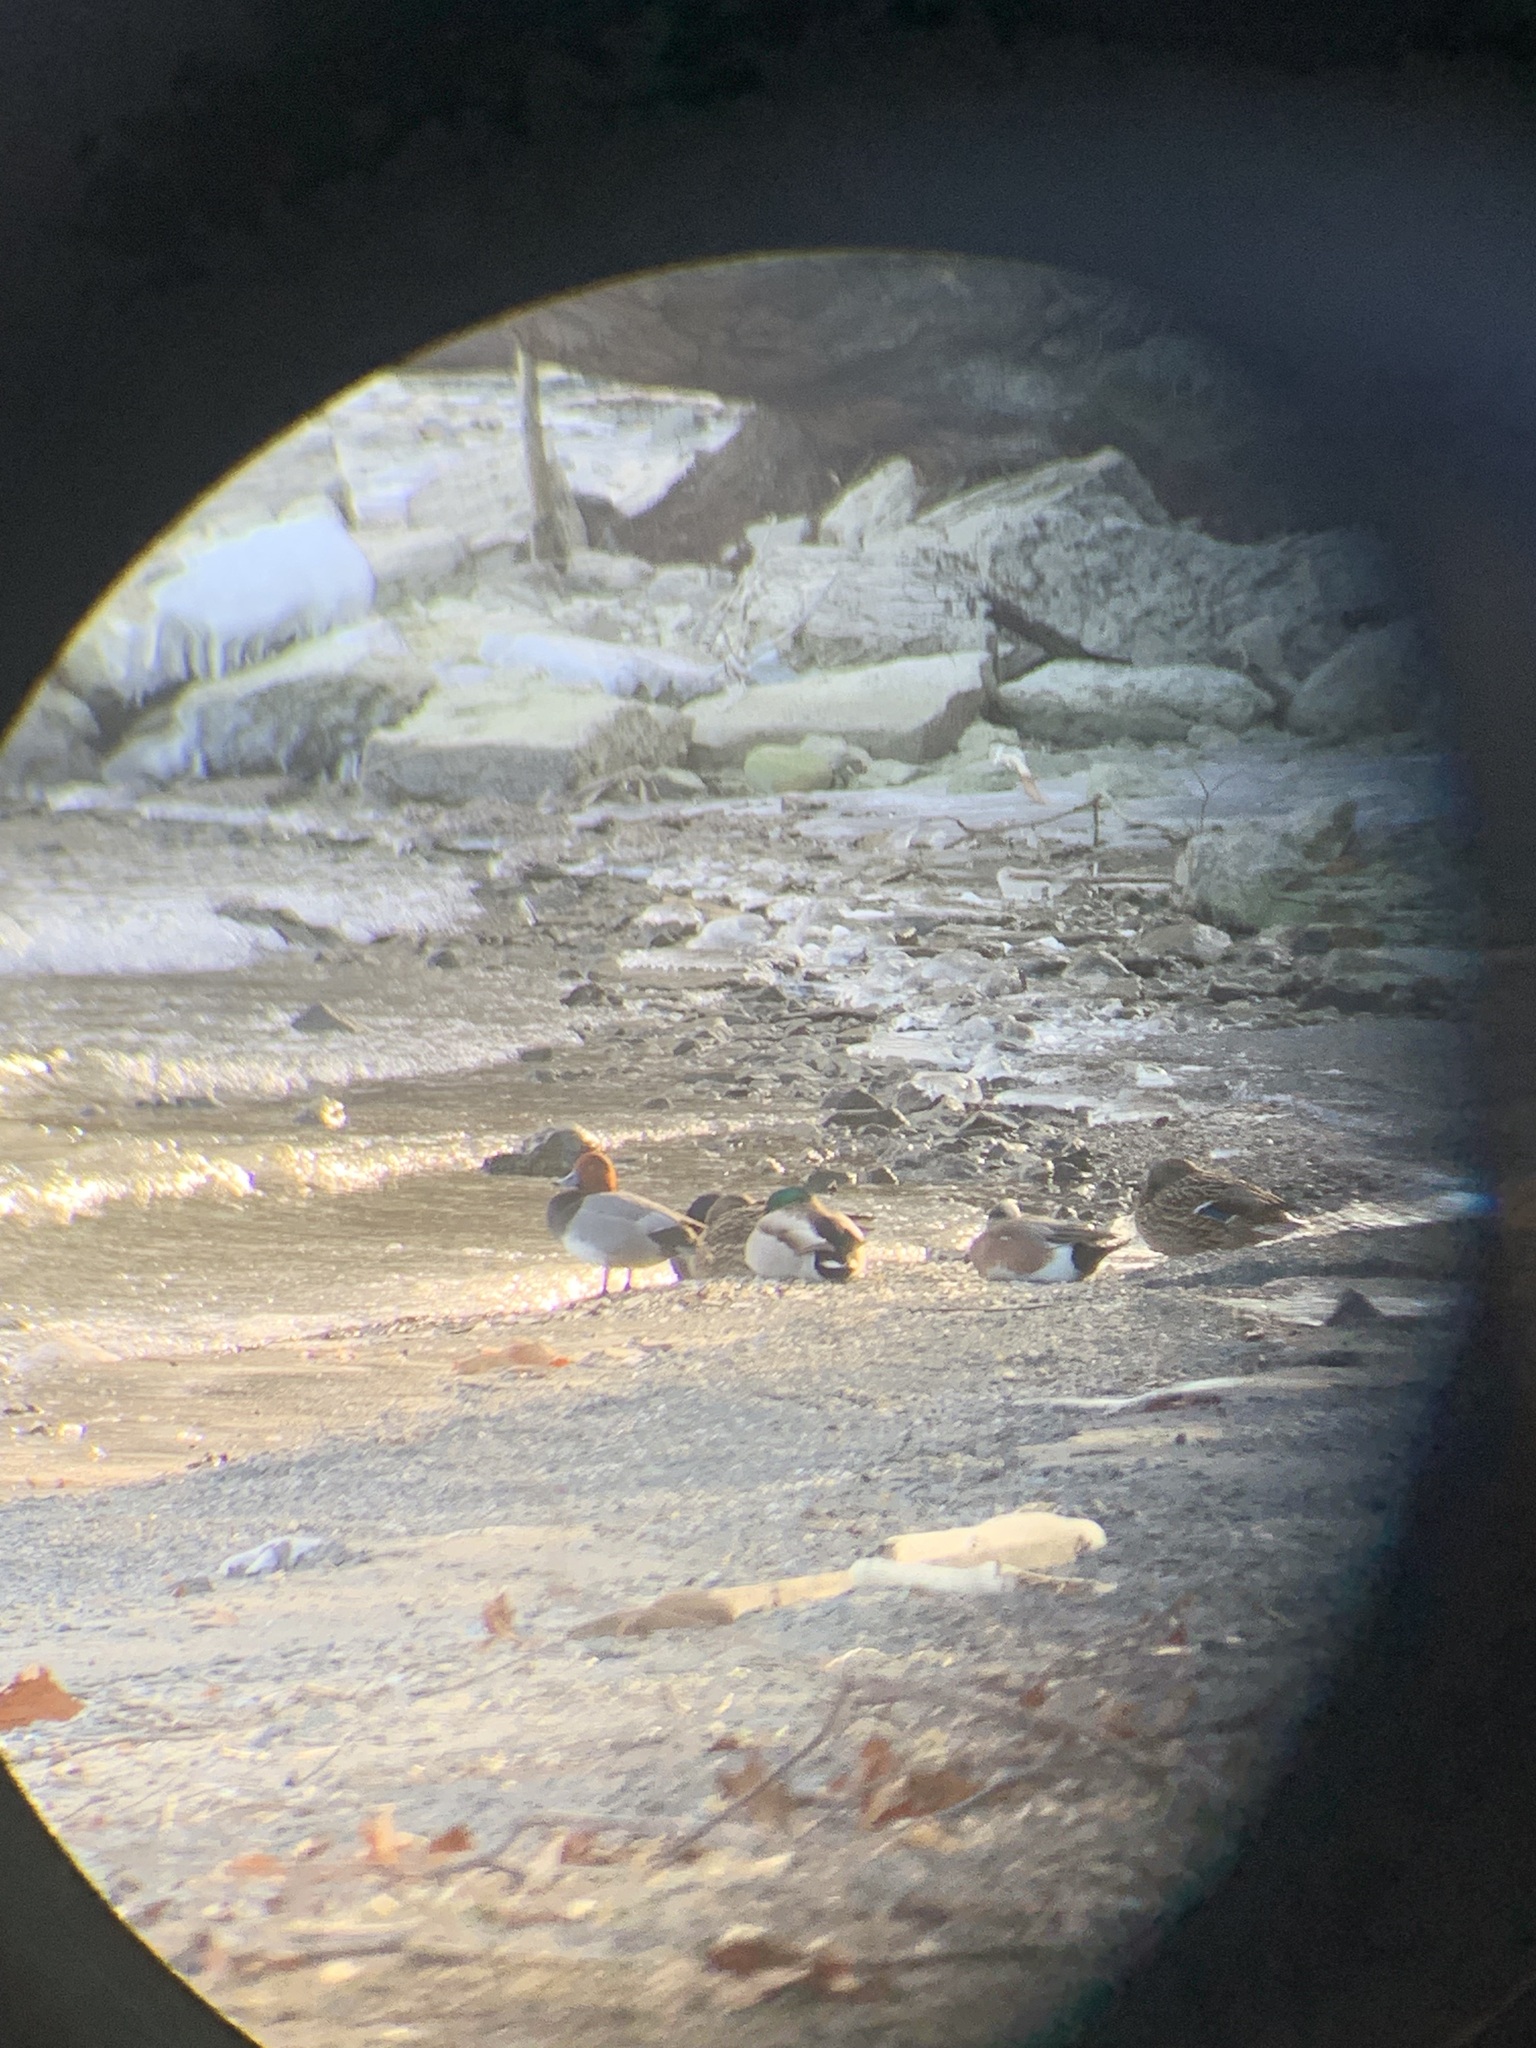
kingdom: Animalia
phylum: Chordata
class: Aves
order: Anseriformes
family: Anatidae
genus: Mareca
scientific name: Mareca americana
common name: American wigeon
